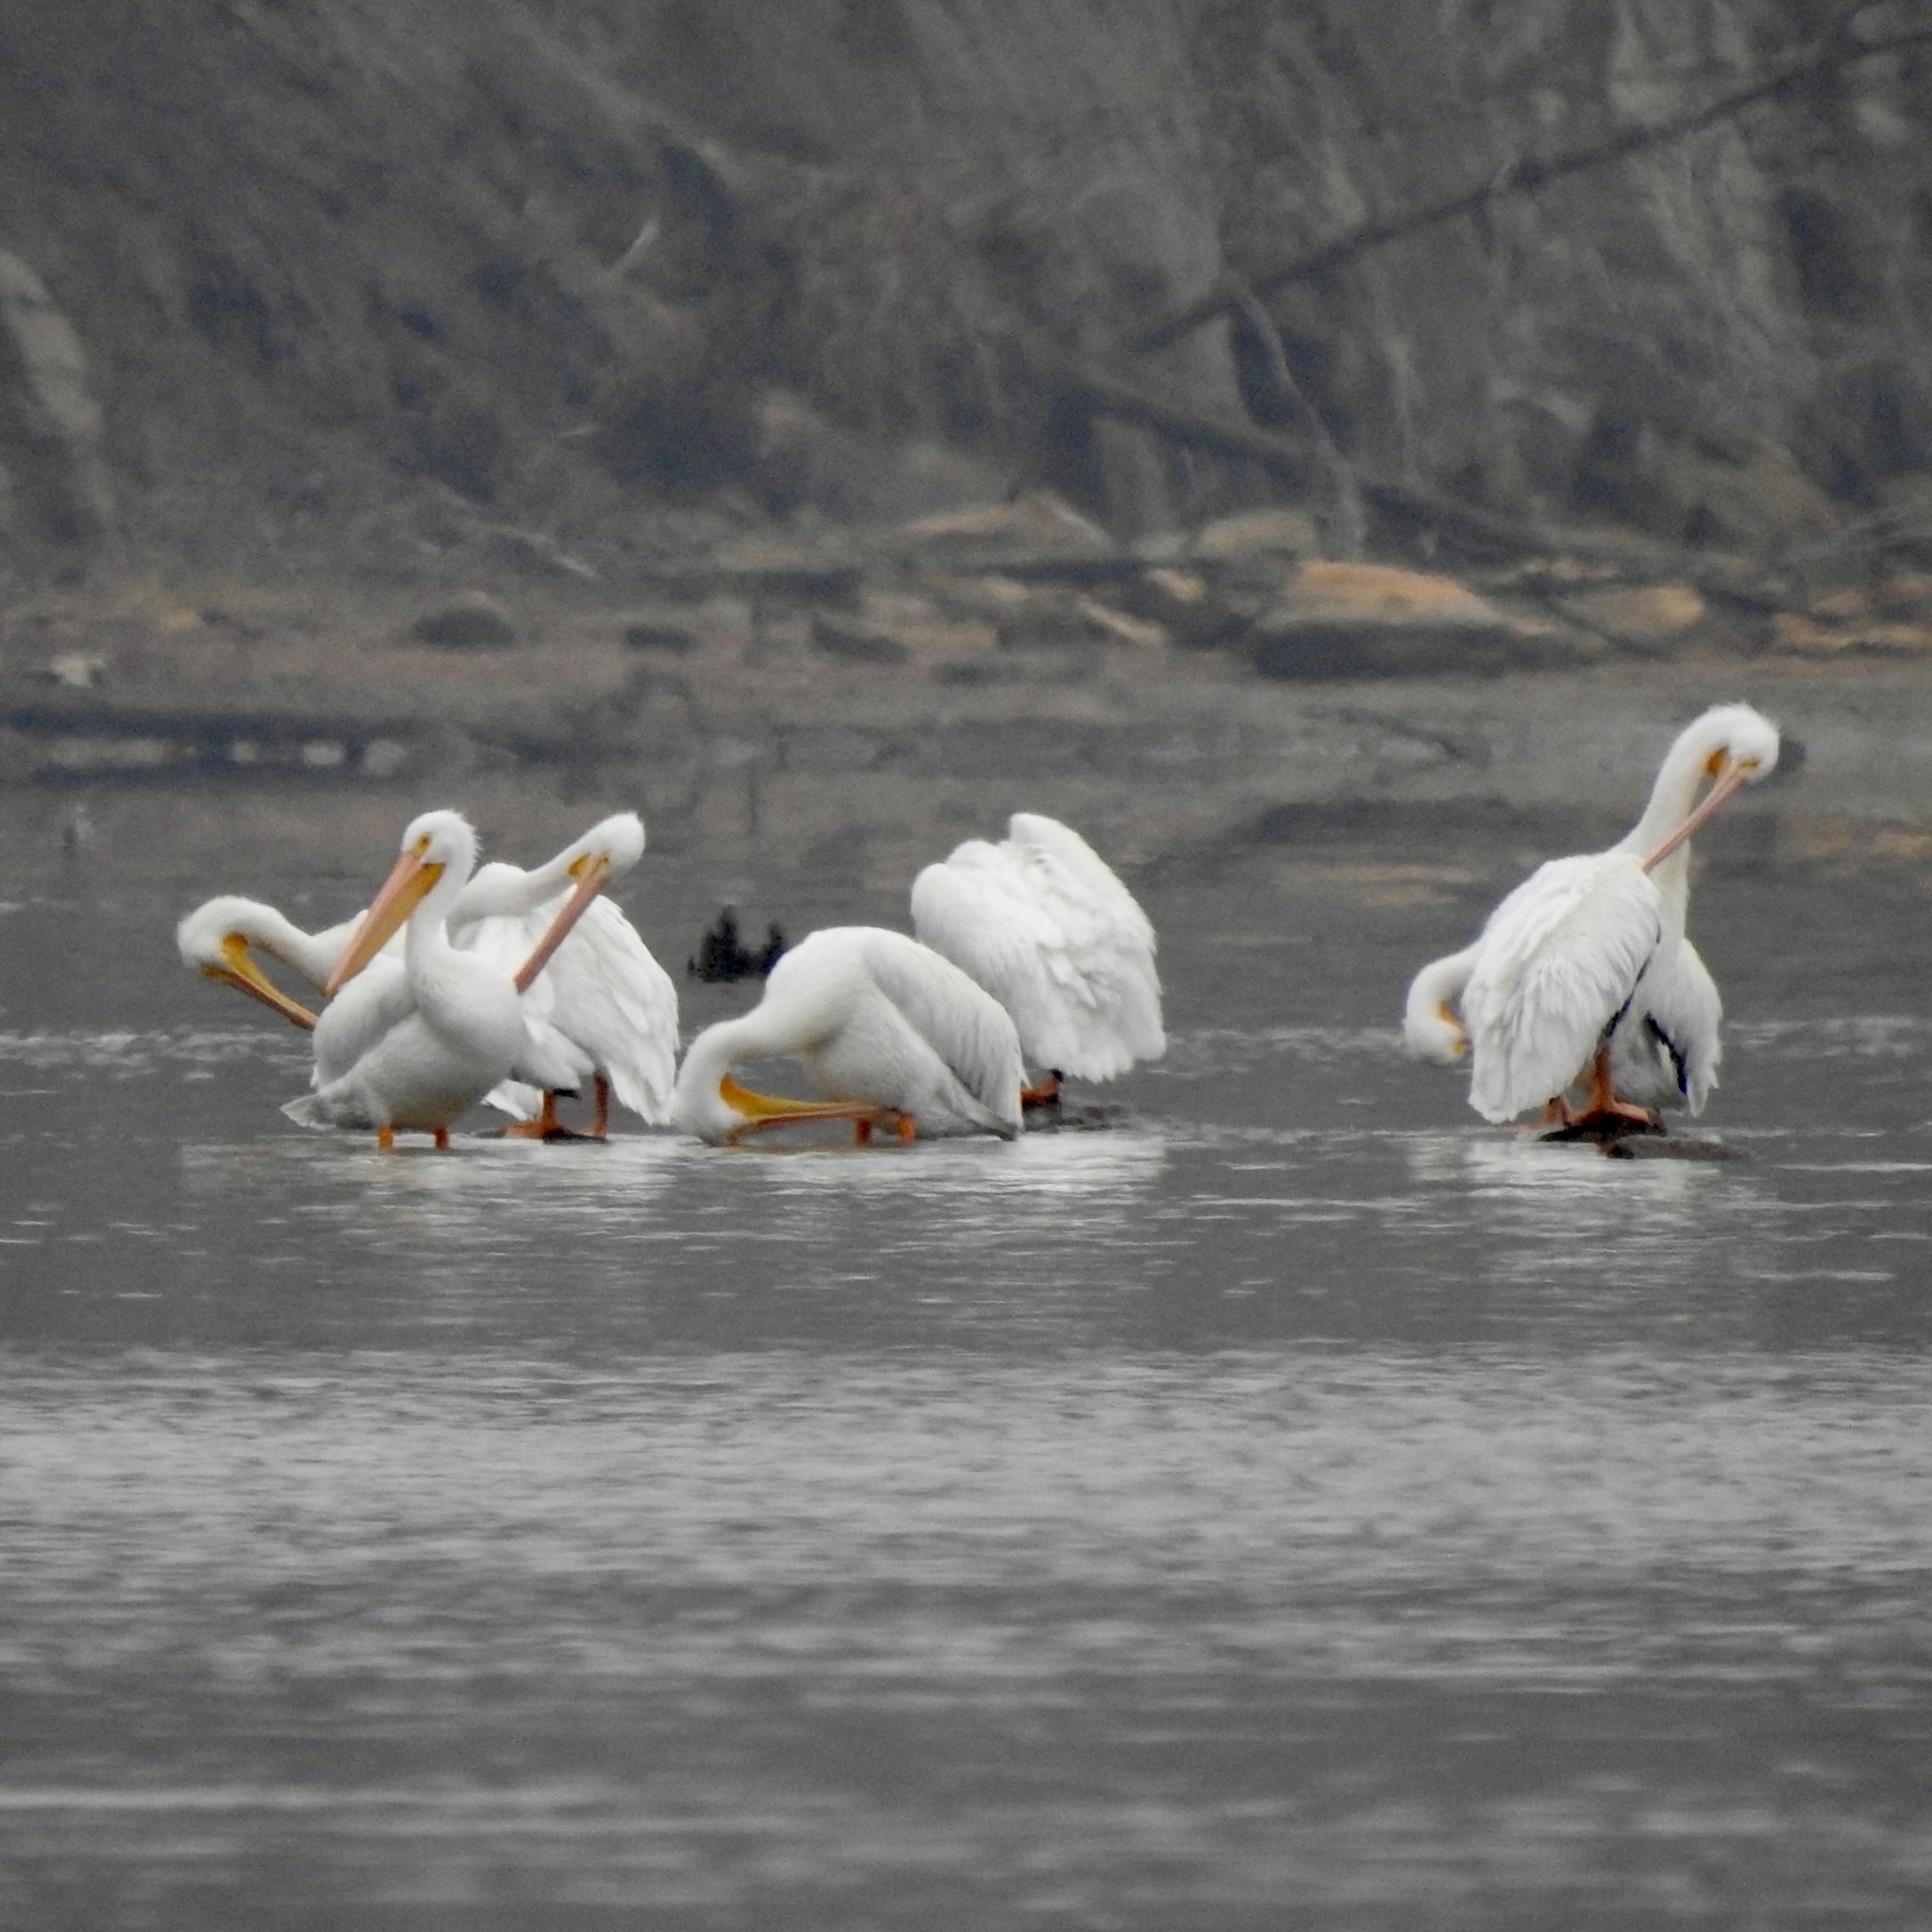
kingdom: Animalia
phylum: Chordata
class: Aves
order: Pelecaniformes
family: Pelecanidae
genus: Pelecanus
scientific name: Pelecanus erythrorhynchos
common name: American white pelican
